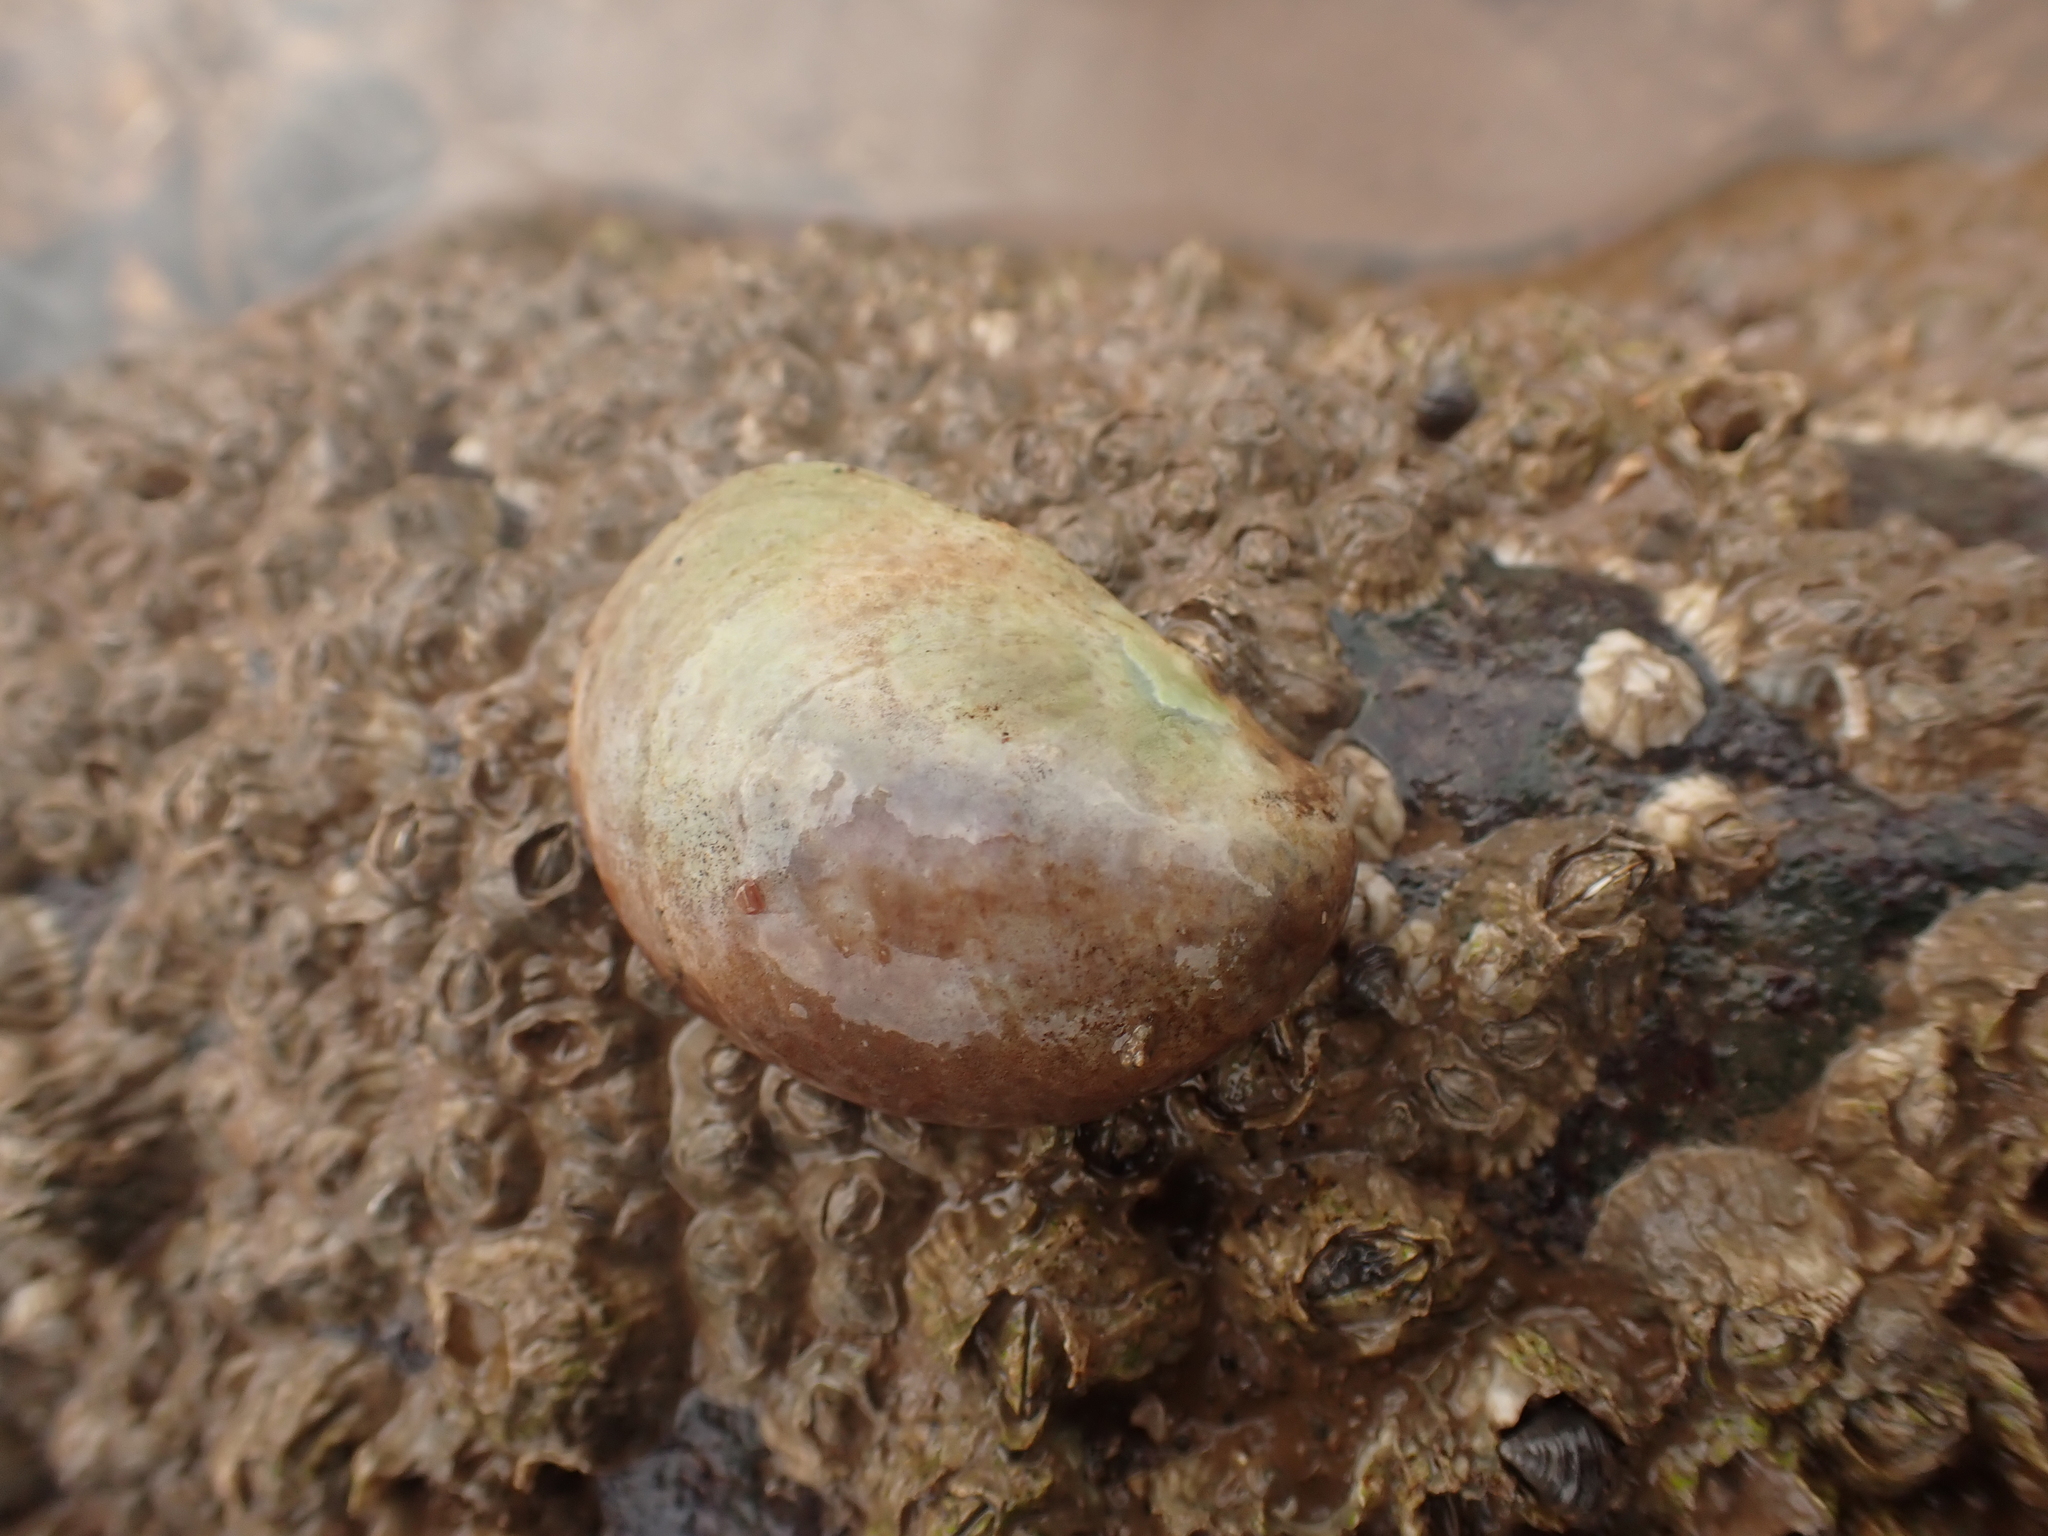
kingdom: Animalia
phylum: Mollusca
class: Gastropoda
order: Littorinimorpha
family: Calyptraeidae
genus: Crepidula
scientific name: Crepidula fornicata
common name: Slipper limpet
